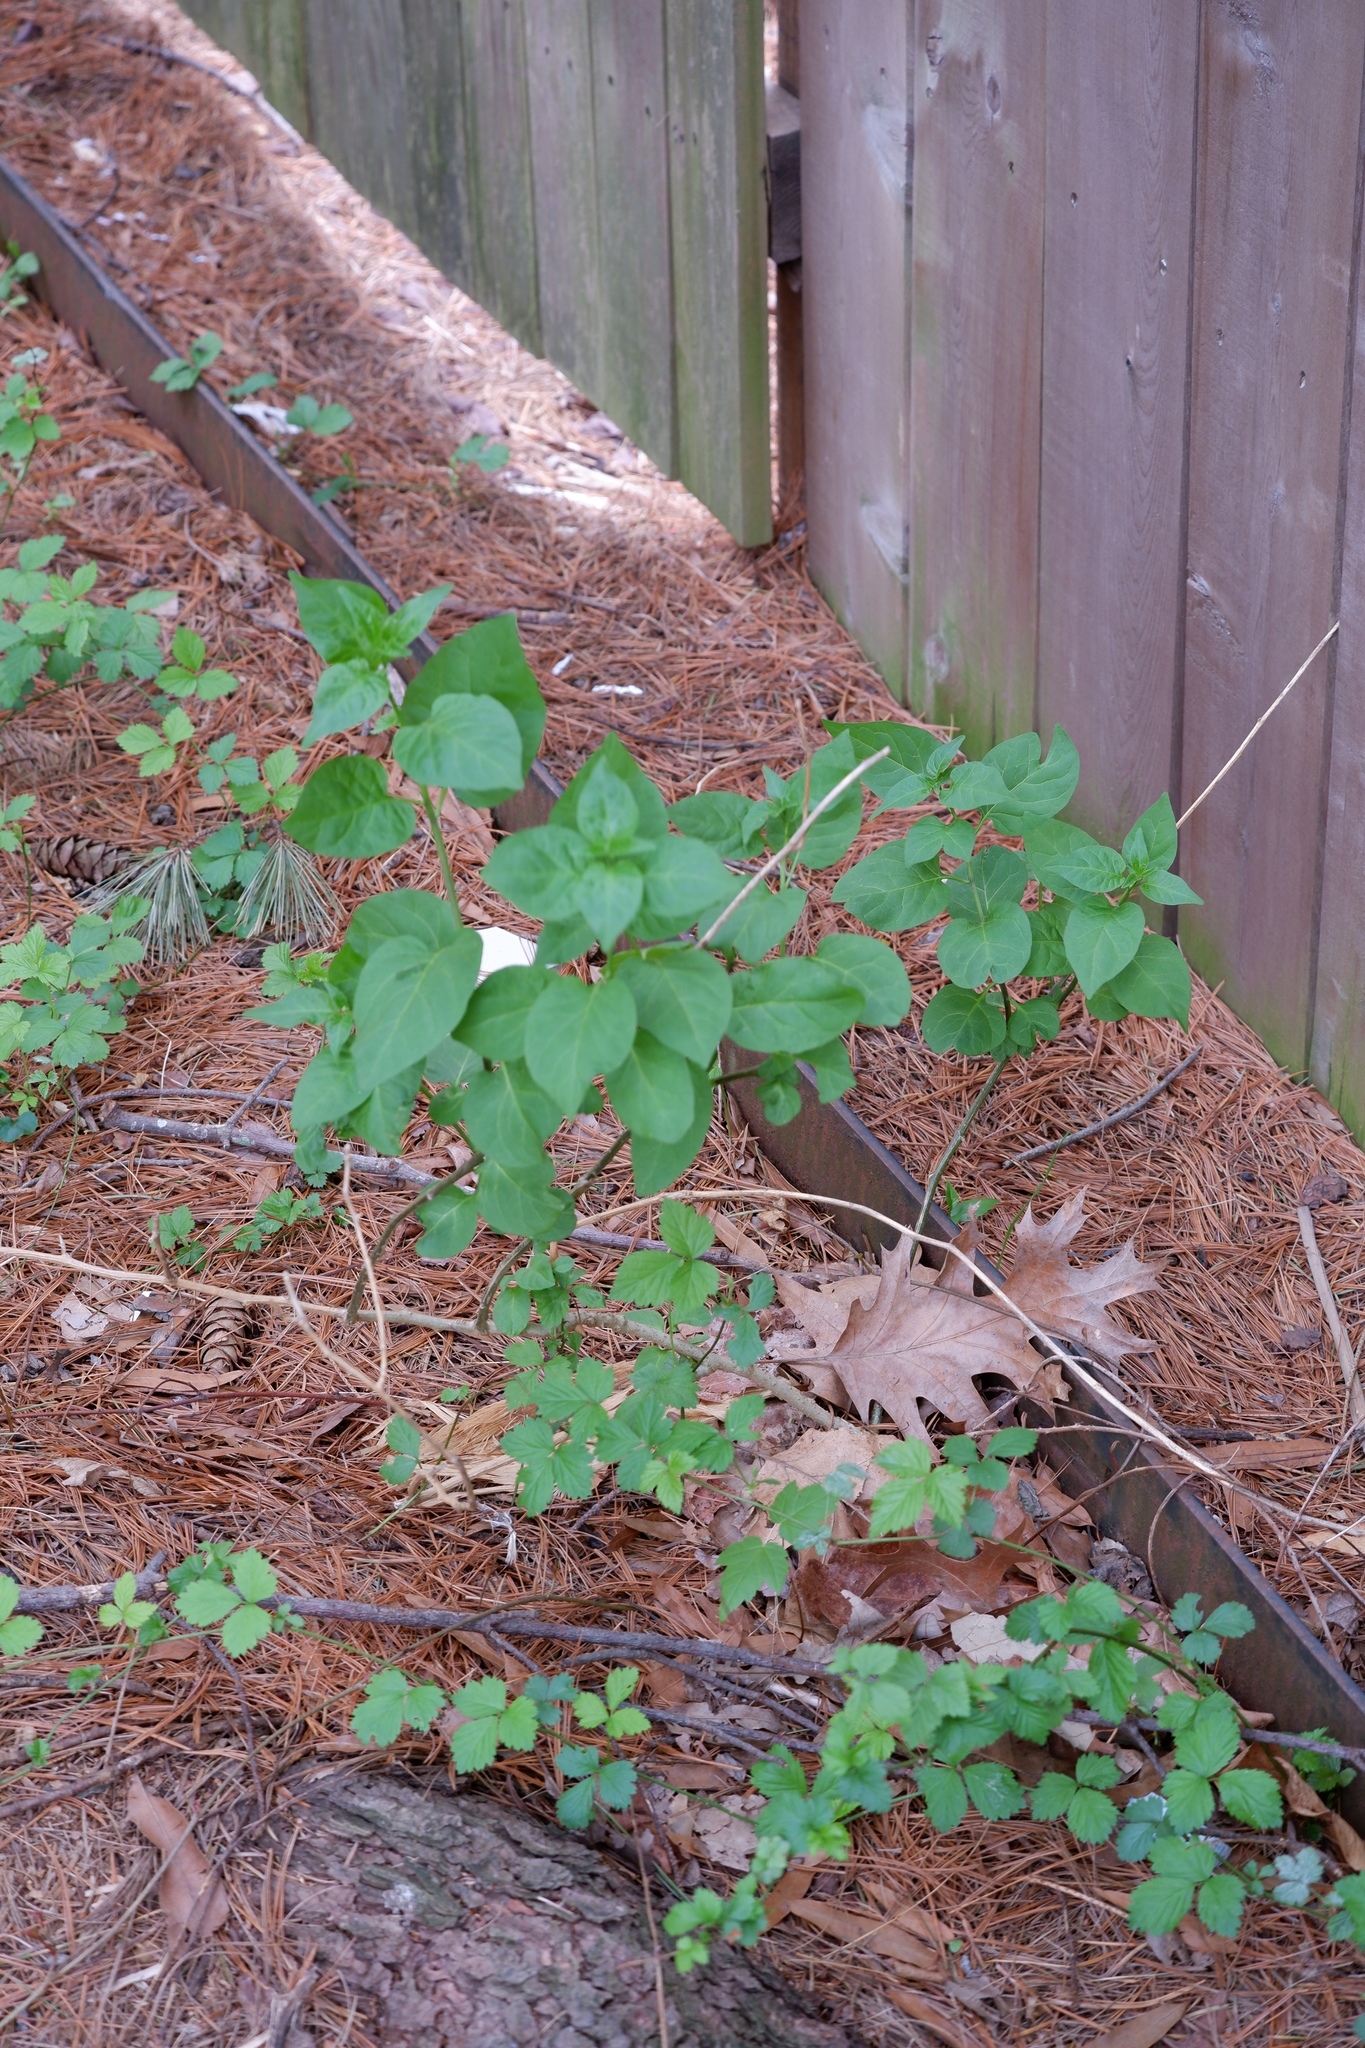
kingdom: Plantae
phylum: Tracheophyta
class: Magnoliopsida
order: Solanales
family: Solanaceae
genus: Solanum
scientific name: Solanum dulcamara
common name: Climbing nightshade
